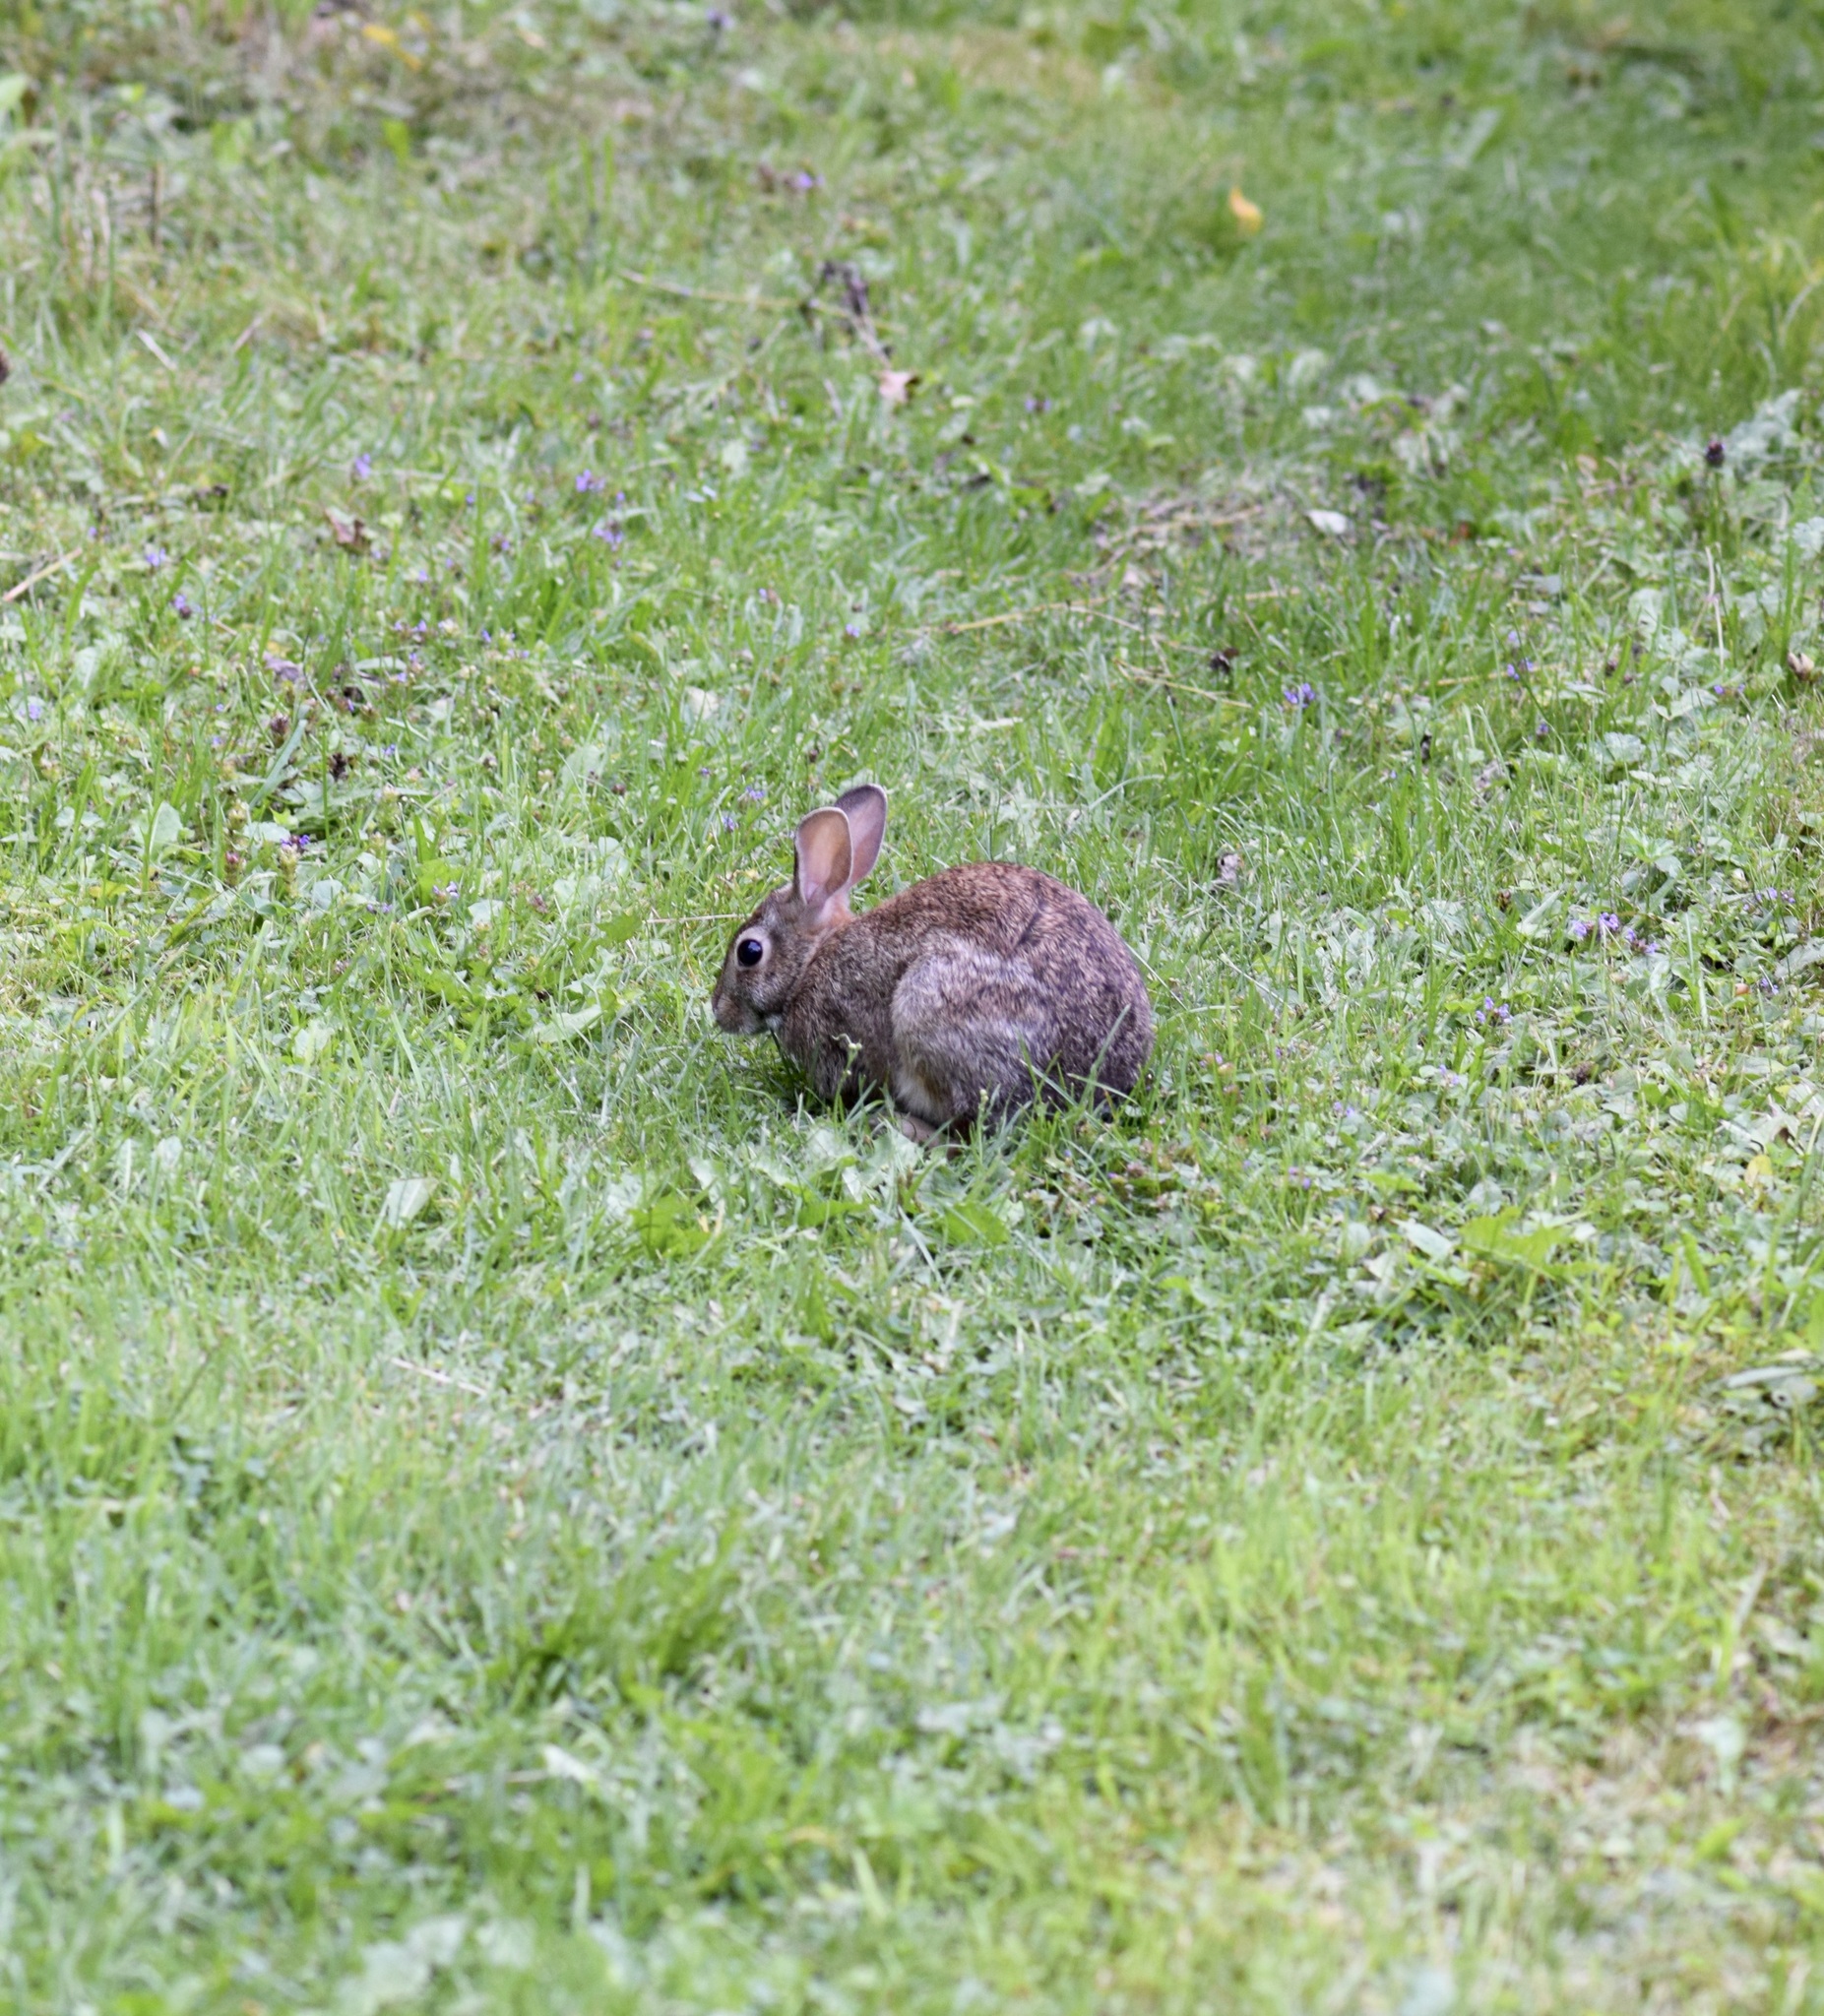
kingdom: Animalia
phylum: Chordata
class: Mammalia
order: Lagomorpha
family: Leporidae
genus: Sylvilagus
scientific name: Sylvilagus floridanus
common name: Eastern cottontail
